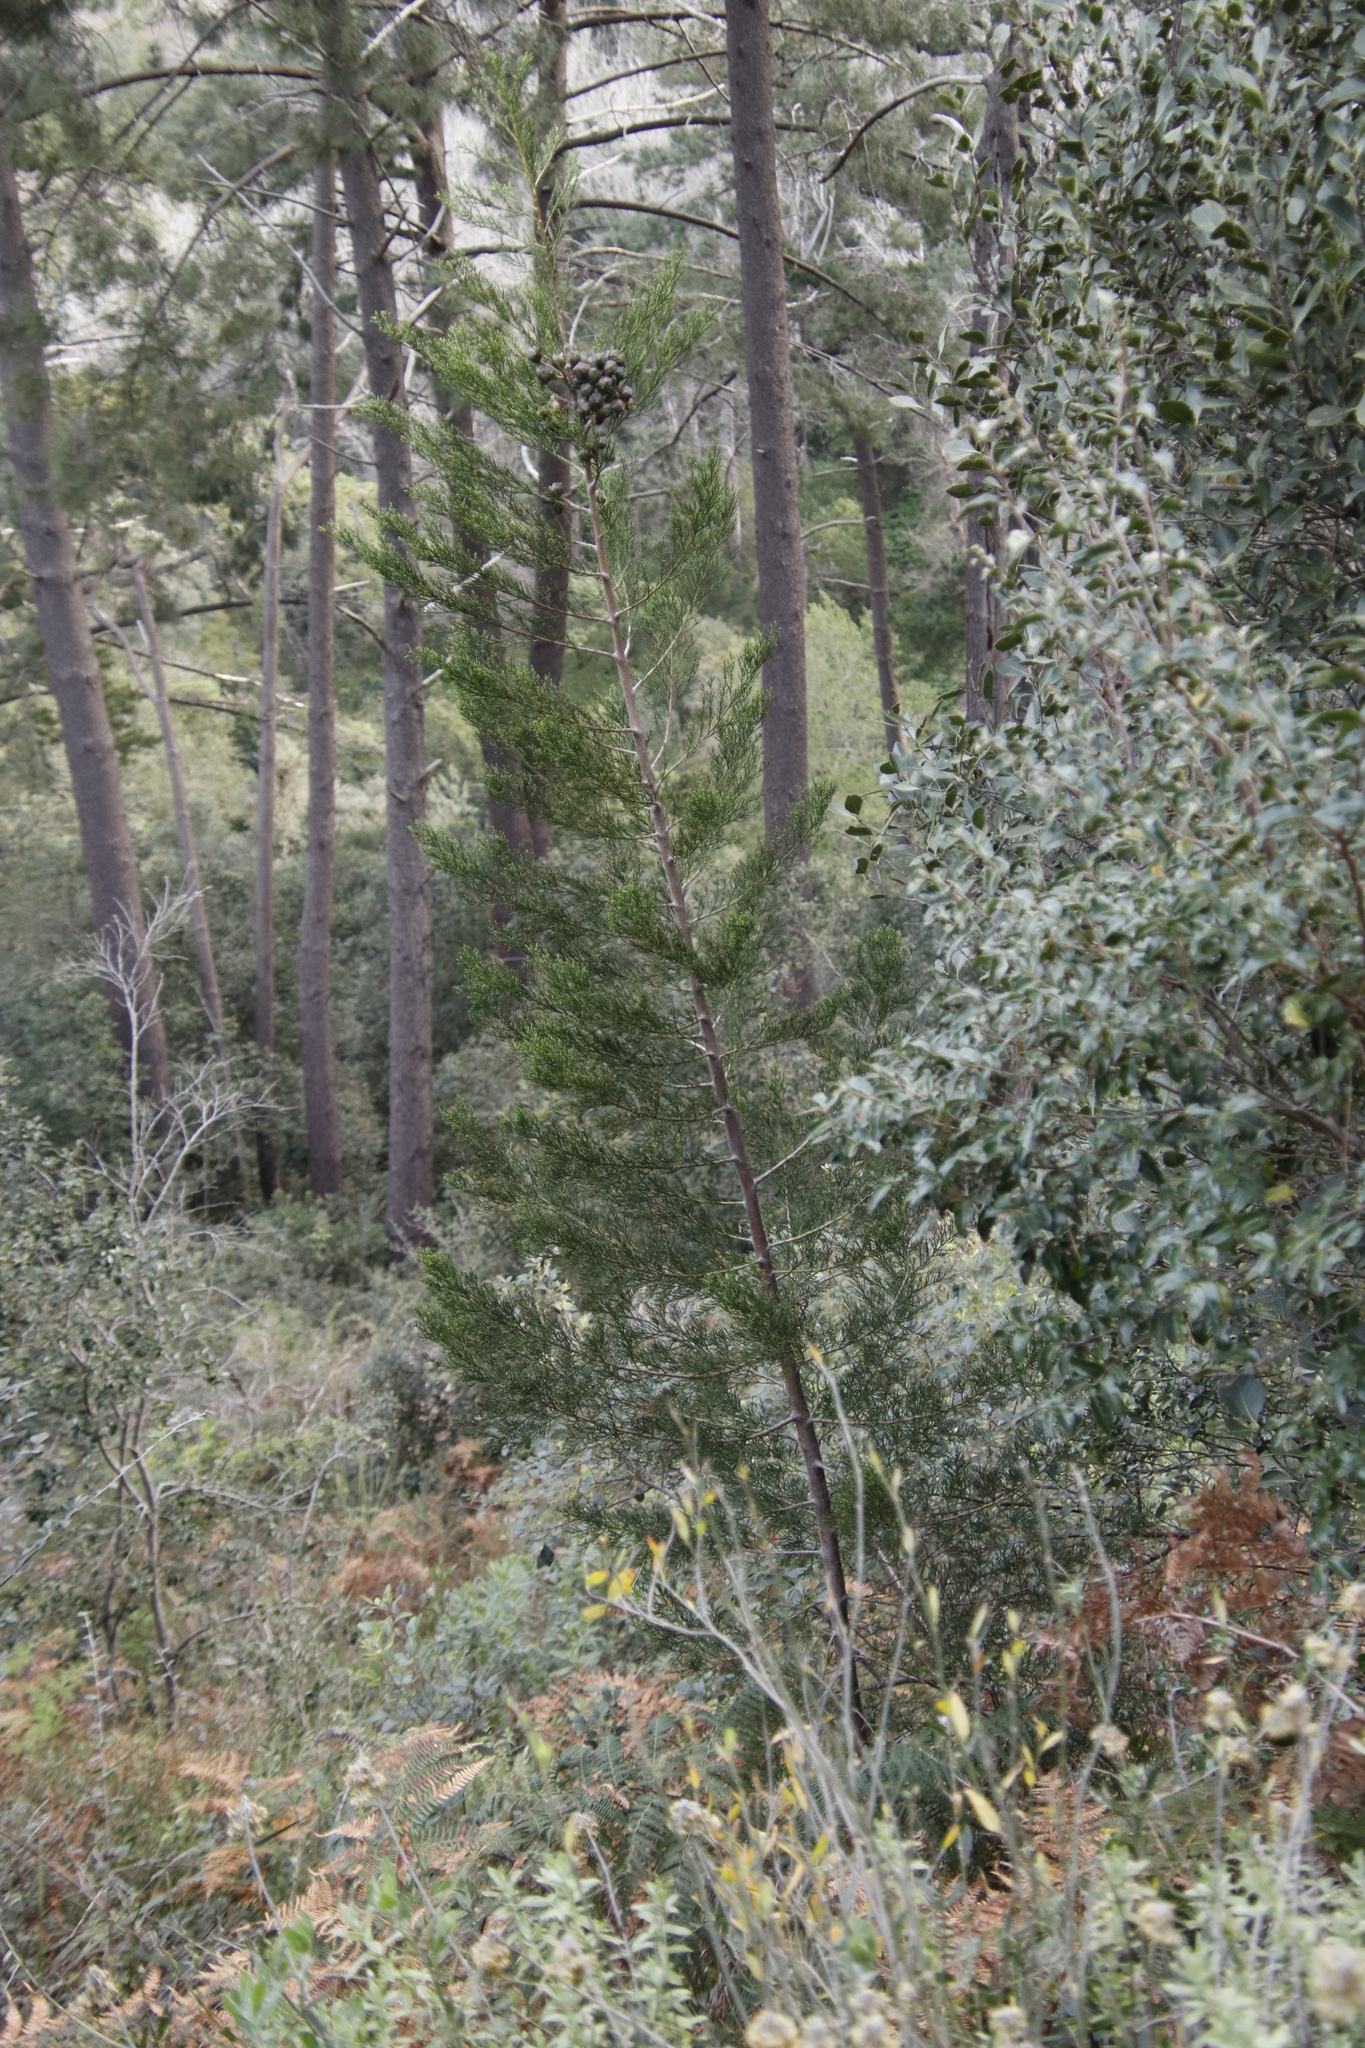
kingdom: Plantae
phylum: Tracheophyta
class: Pinopsida
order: Pinales
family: Cupressaceae
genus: Widdringtonia
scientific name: Widdringtonia nodiflora
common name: Cape cypress
